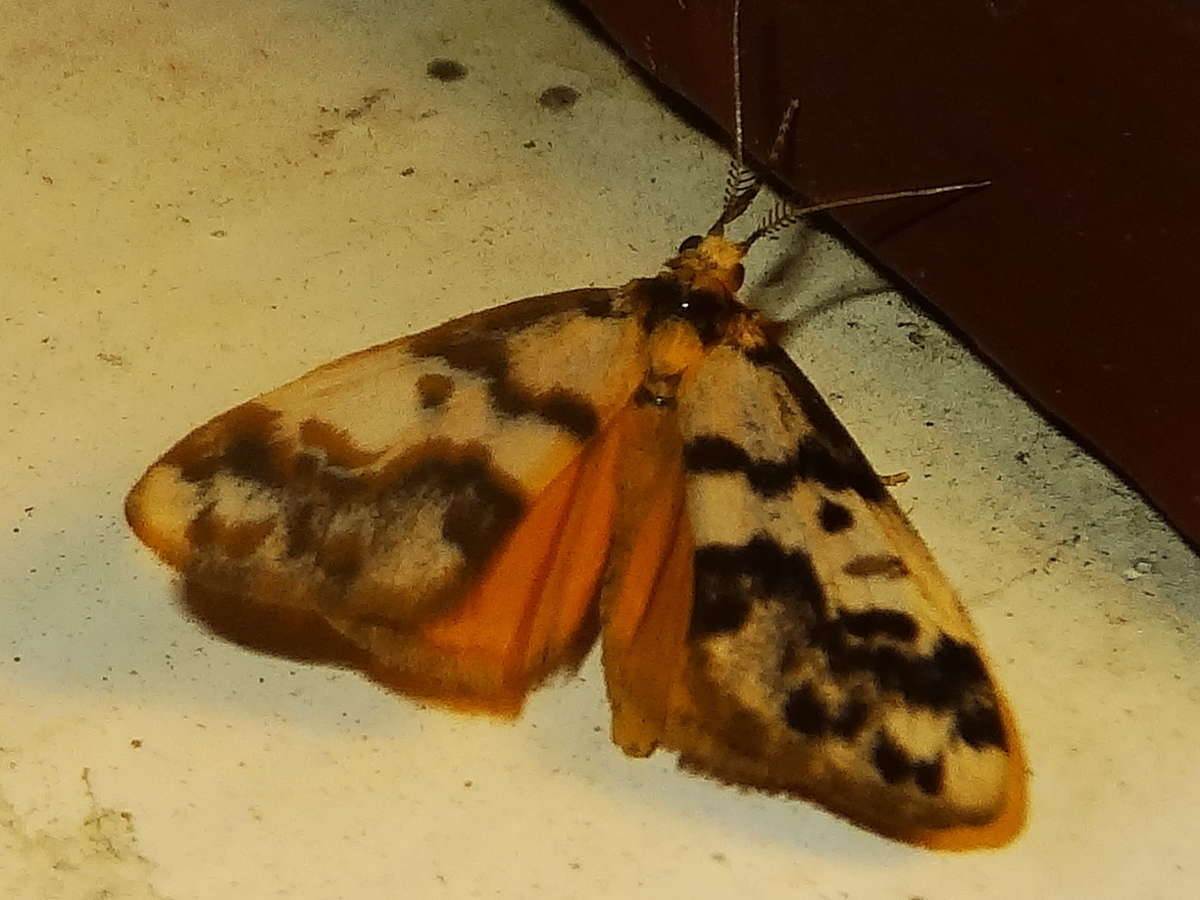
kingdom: Animalia
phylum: Arthropoda
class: Insecta
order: Lepidoptera
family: Erebidae
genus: Anestia
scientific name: Anestia
